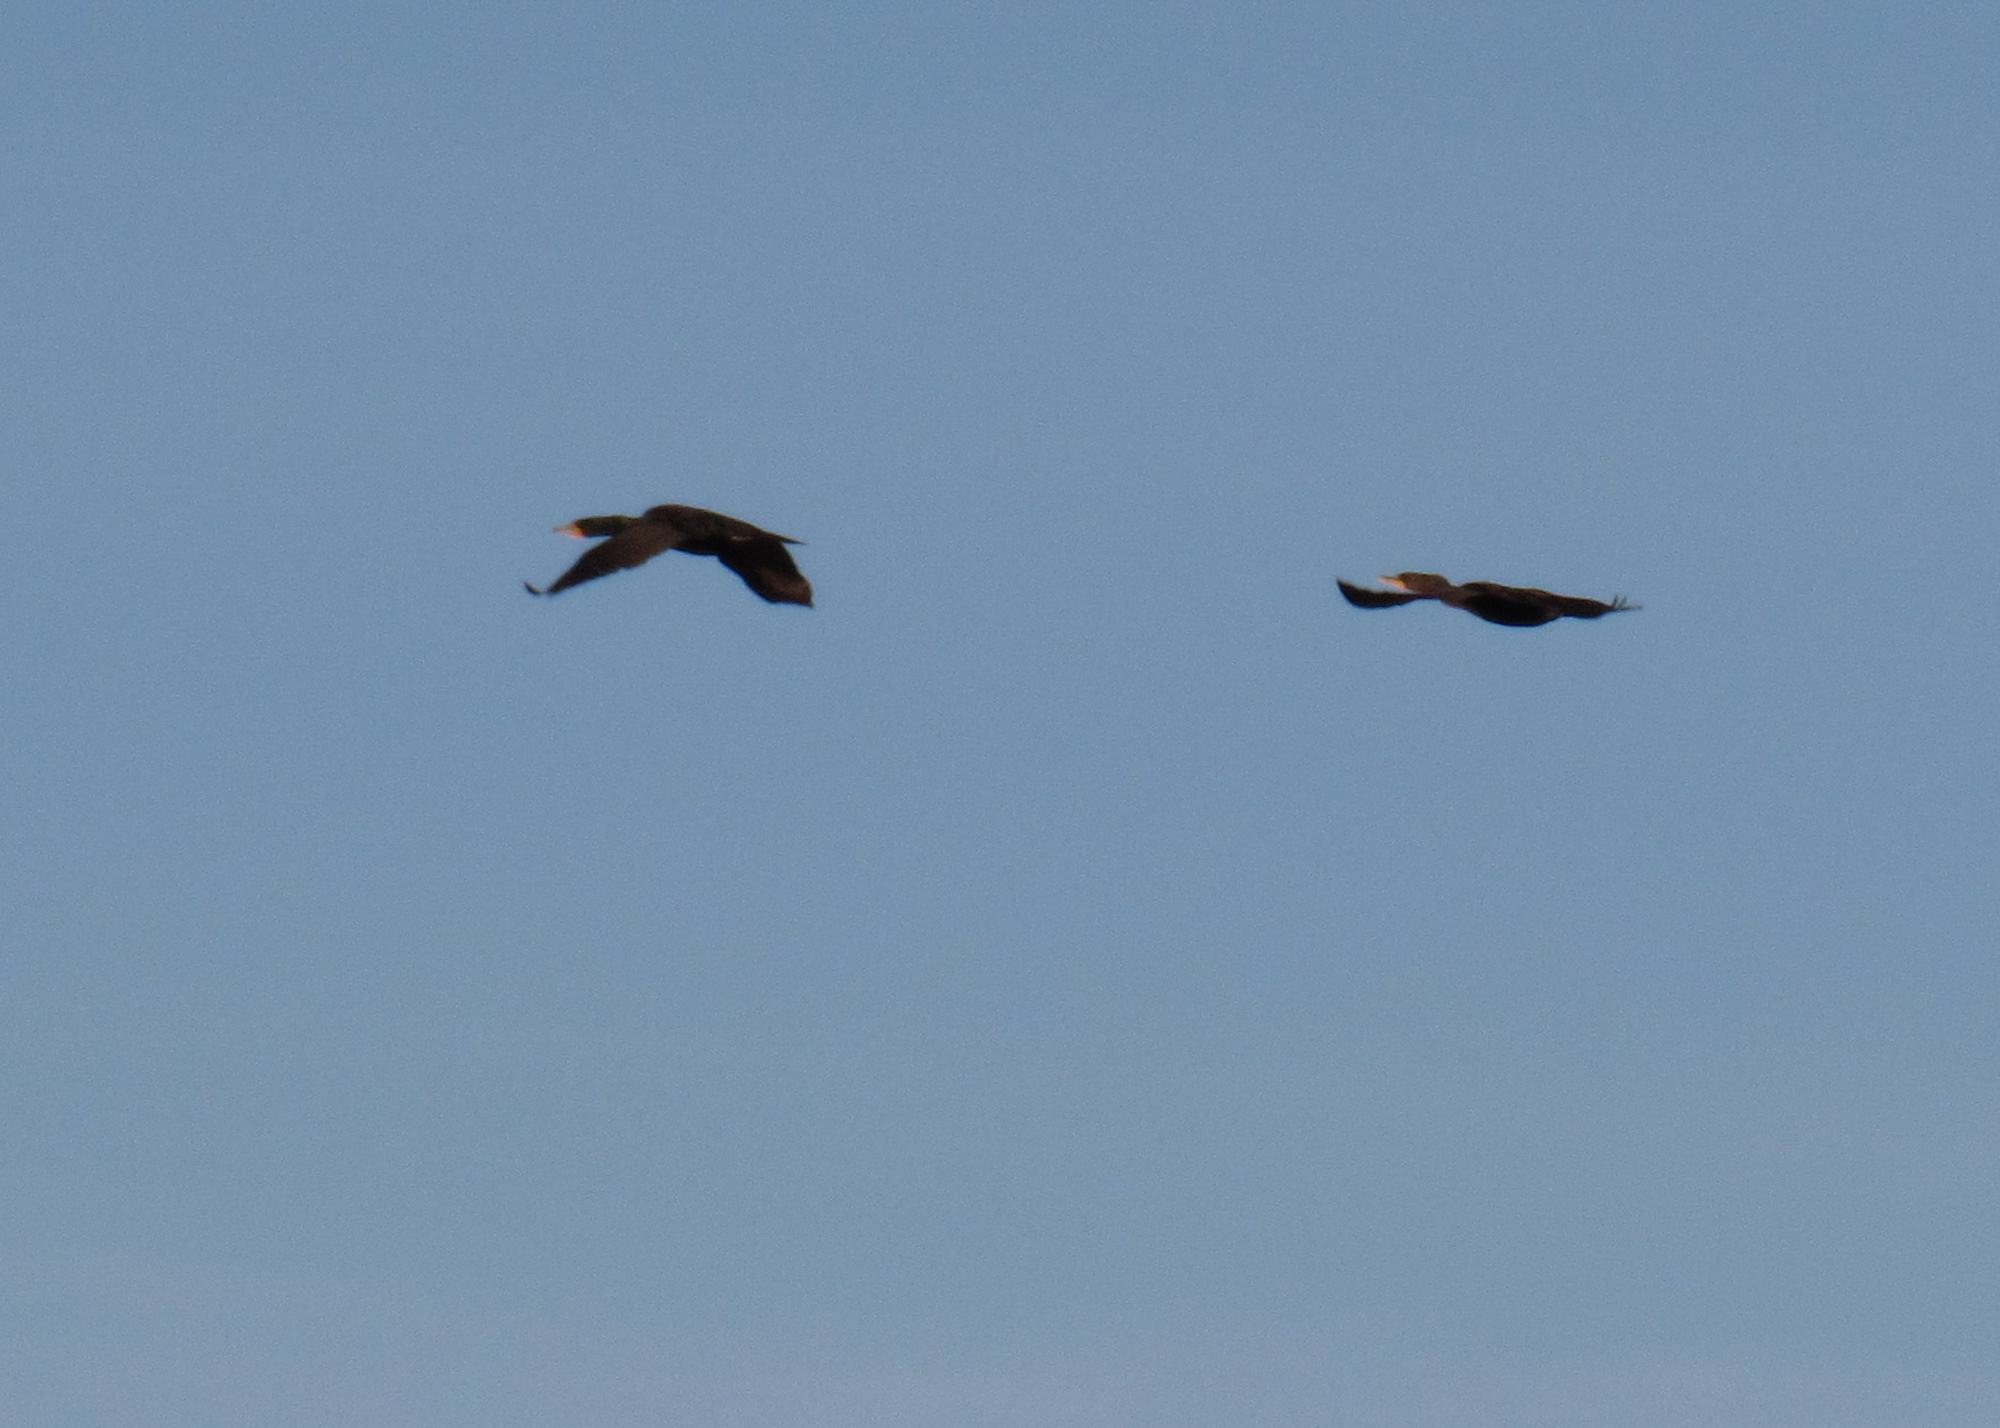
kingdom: Animalia
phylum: Chordata
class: Aves
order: Suliformes
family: Phalacrocoracidae
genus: Phalacrocorax
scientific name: Phalacrocorax auritus
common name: Double-crested cormorant
